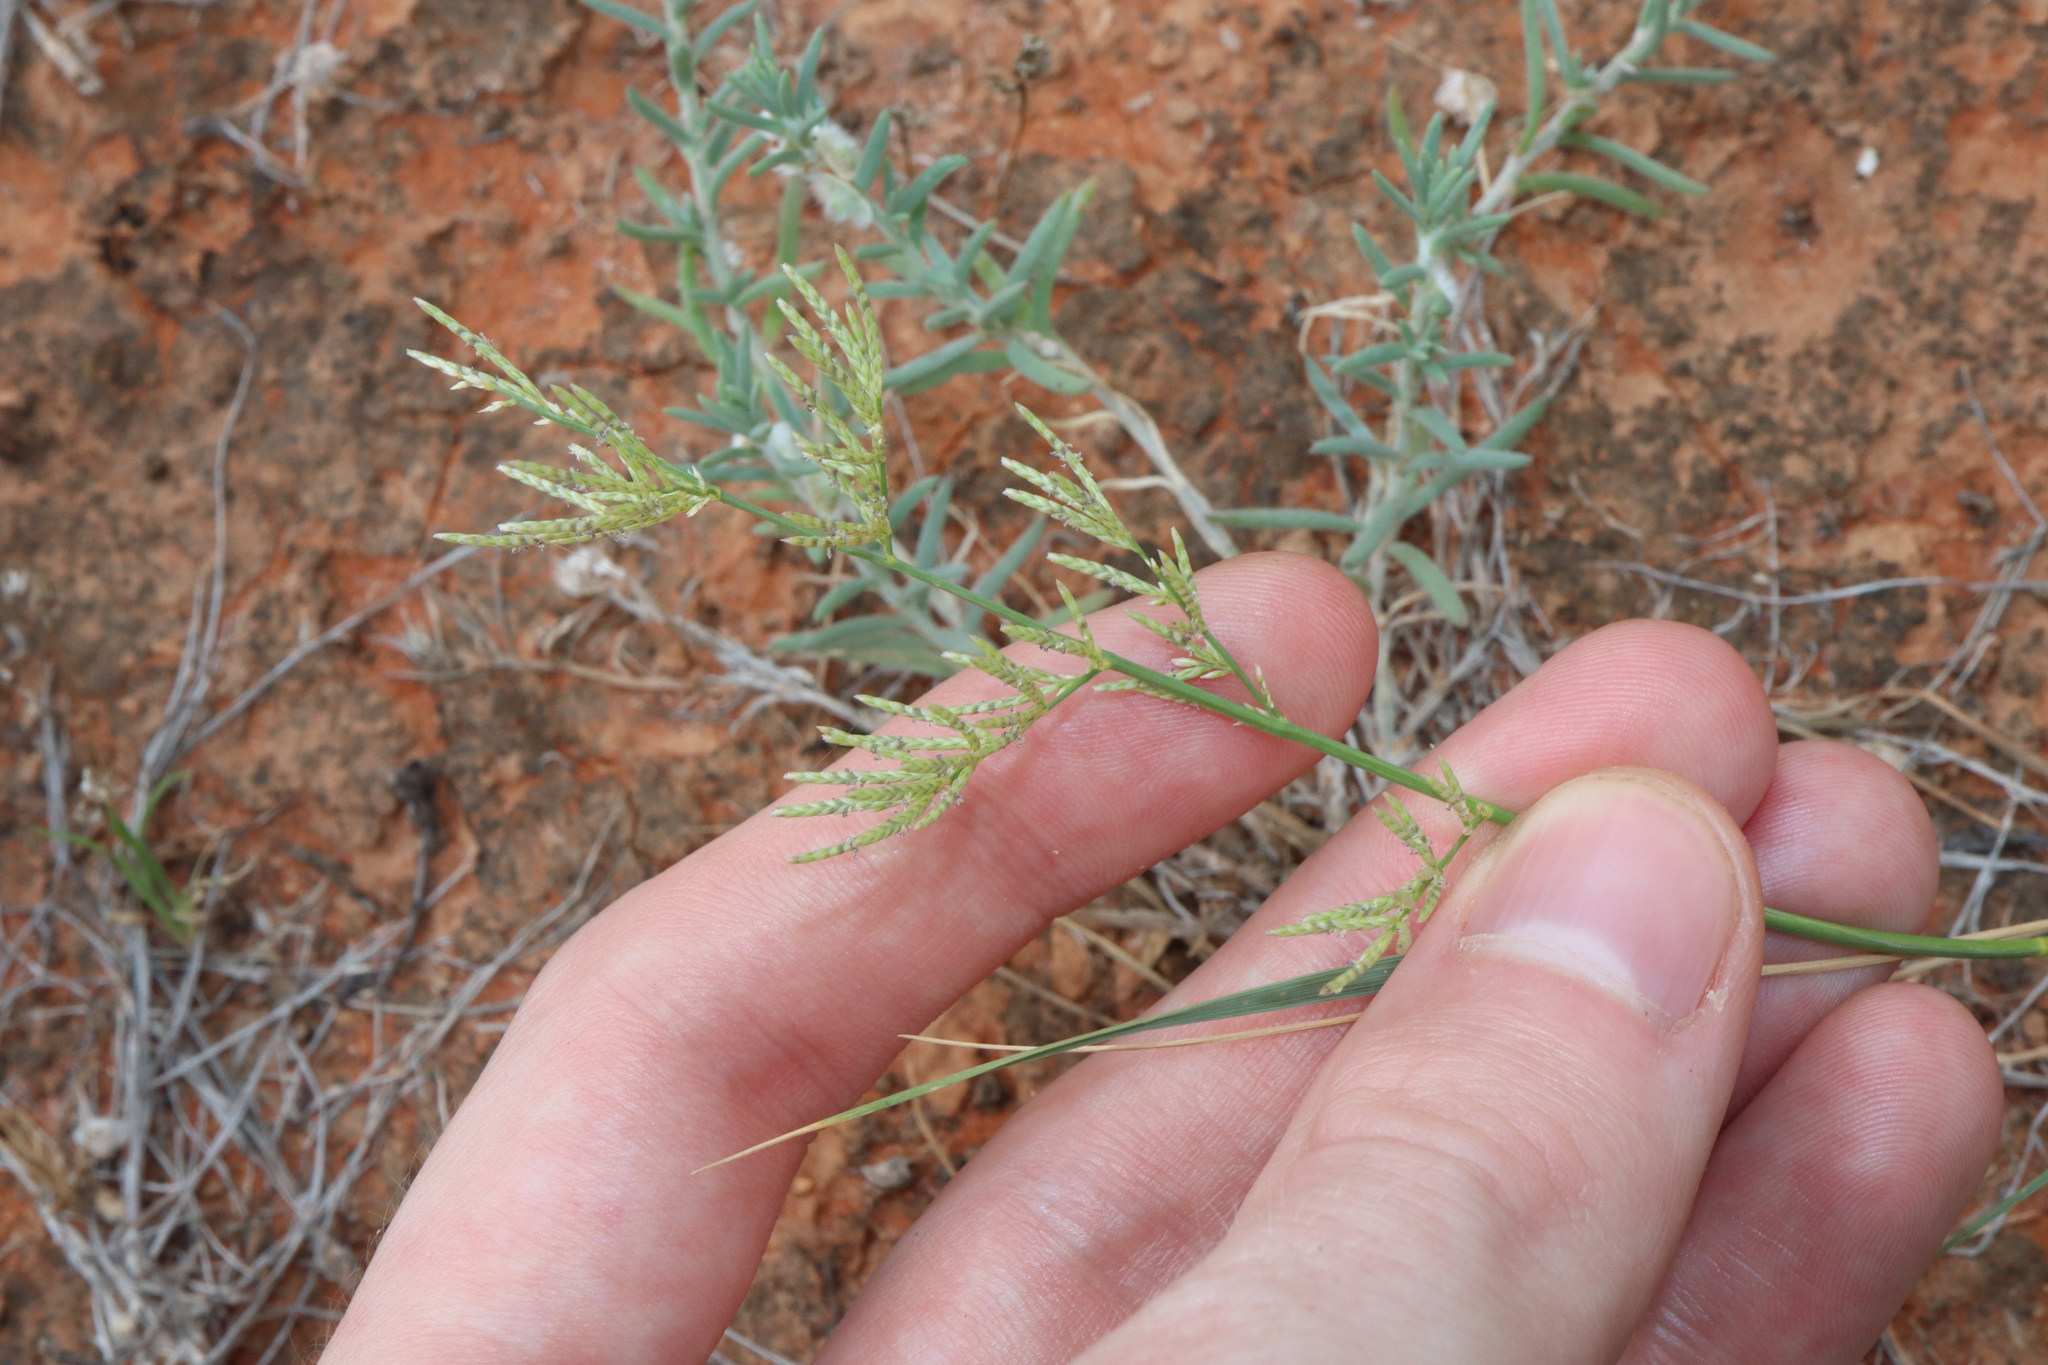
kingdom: Plantae
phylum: Tracheophyta
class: Liliopsida
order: Poales
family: Poaceae
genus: Eragrostis
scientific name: Eragrostis dielsii
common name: Lovegrass
